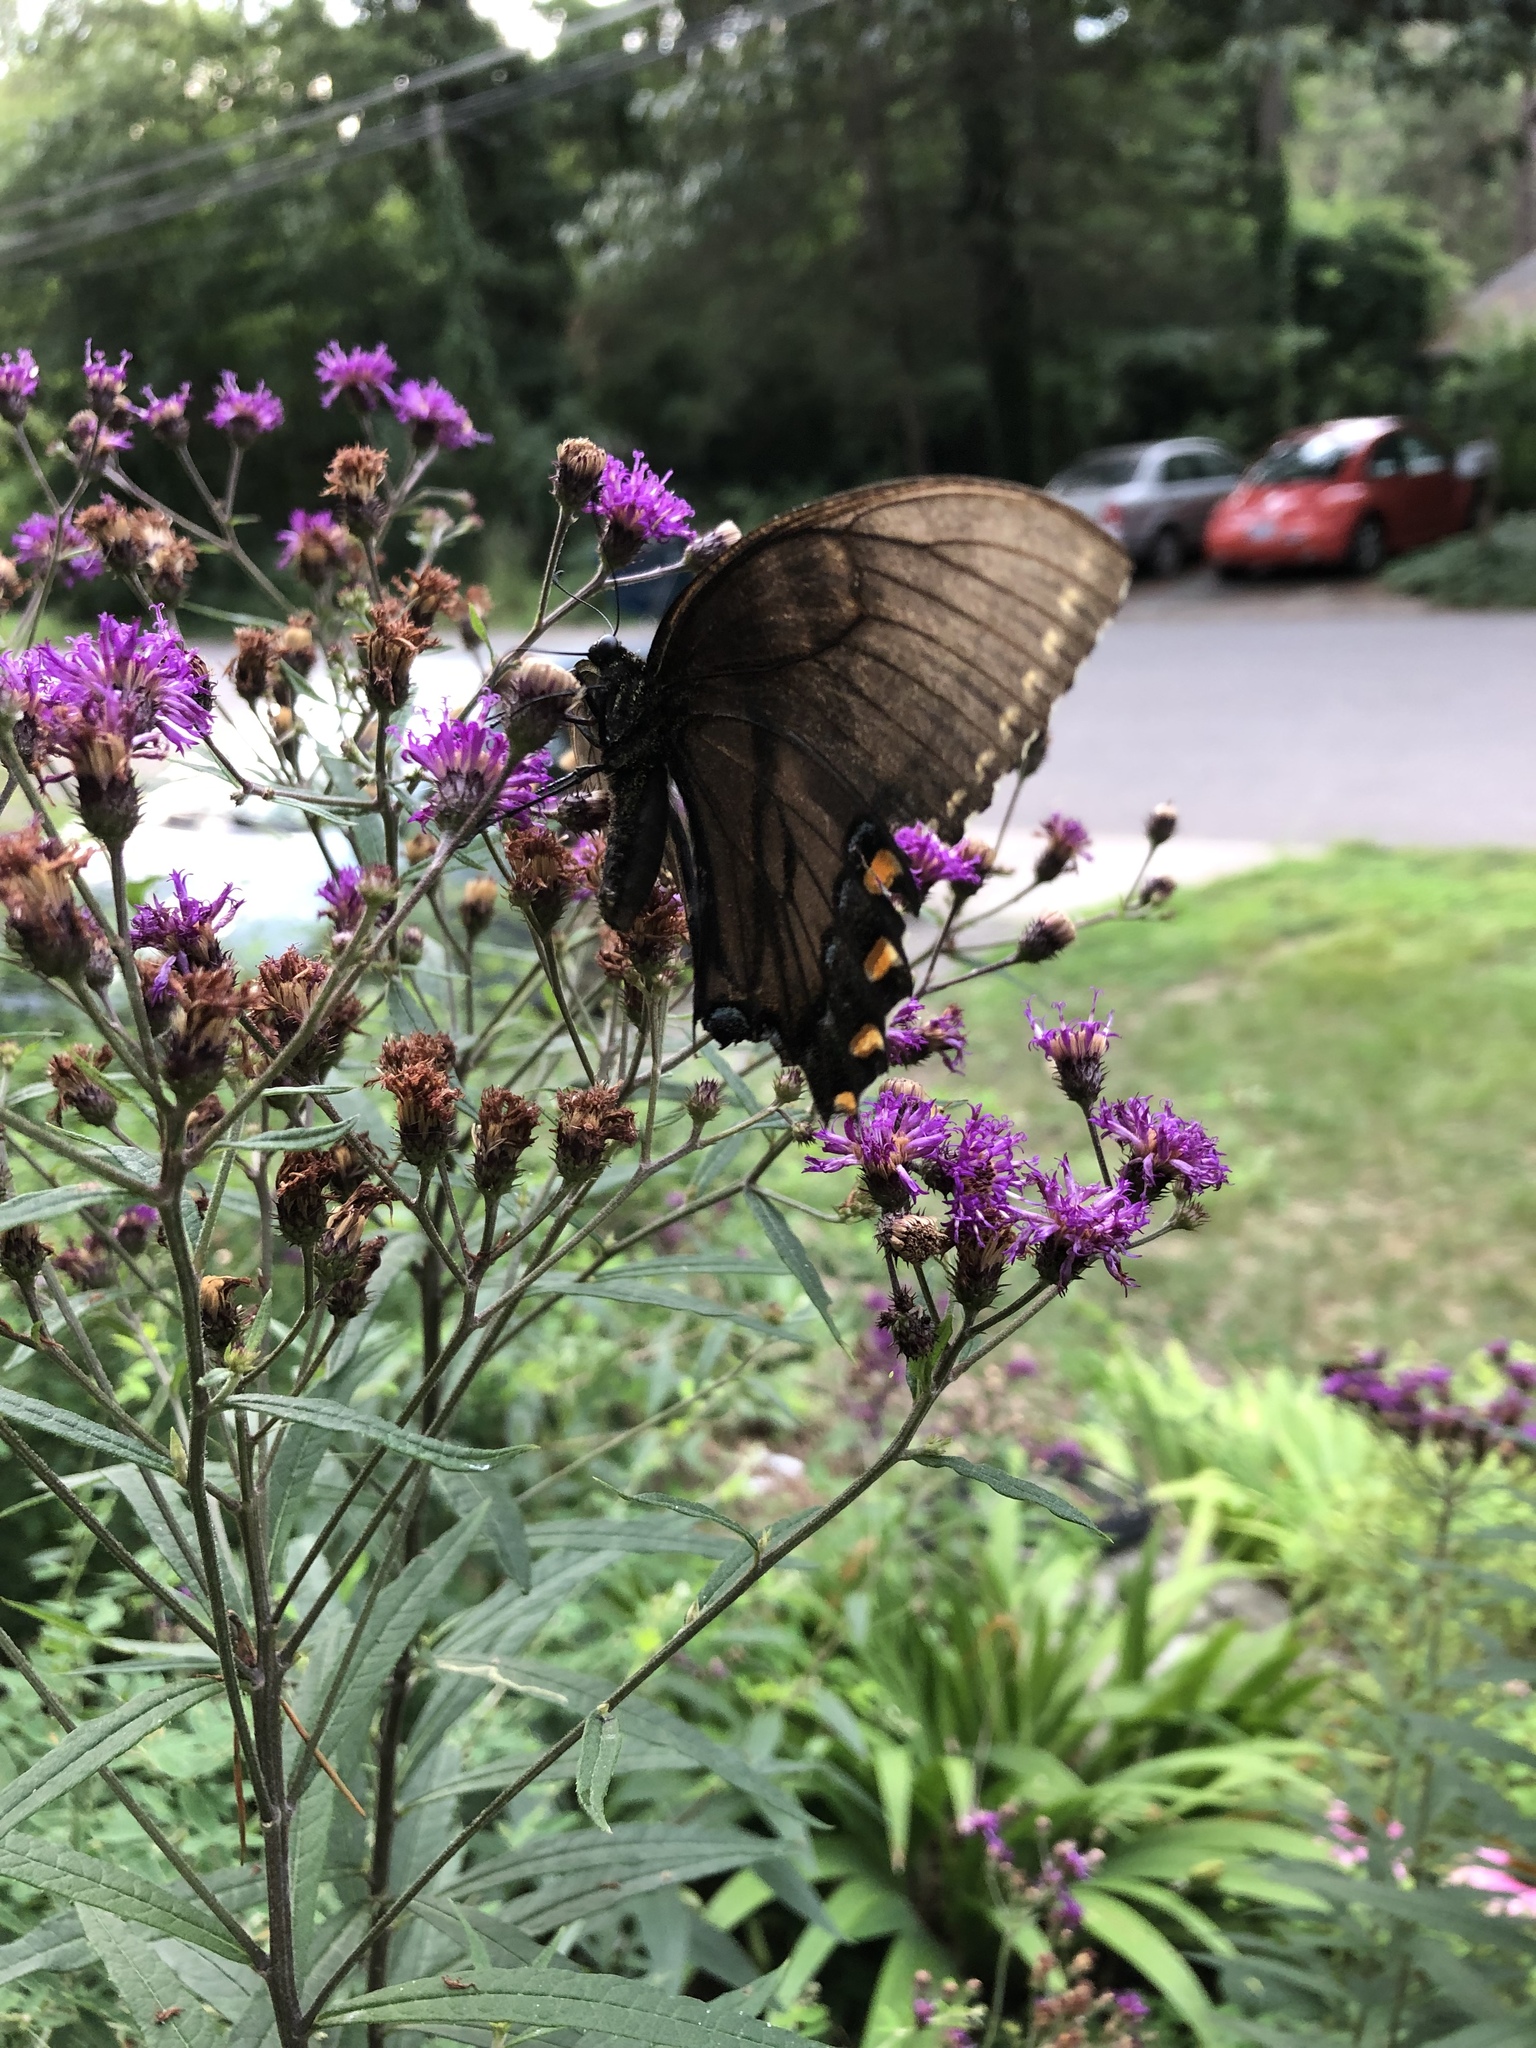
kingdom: Animalia
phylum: Arthropoda
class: Insecta
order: Lepidoptera
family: Papilionidae
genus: Papilio
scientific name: Papilio glaucus
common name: Tiger swallowtail
